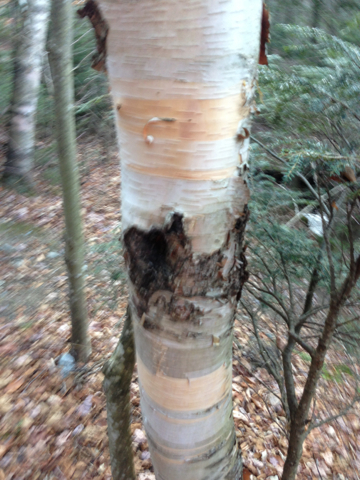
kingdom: Plantae
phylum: Tracheophyta
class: Magnoliopsida
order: Fagales
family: Betulaceae
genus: Betula
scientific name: Betula cordifolia
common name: Mountain white birch
